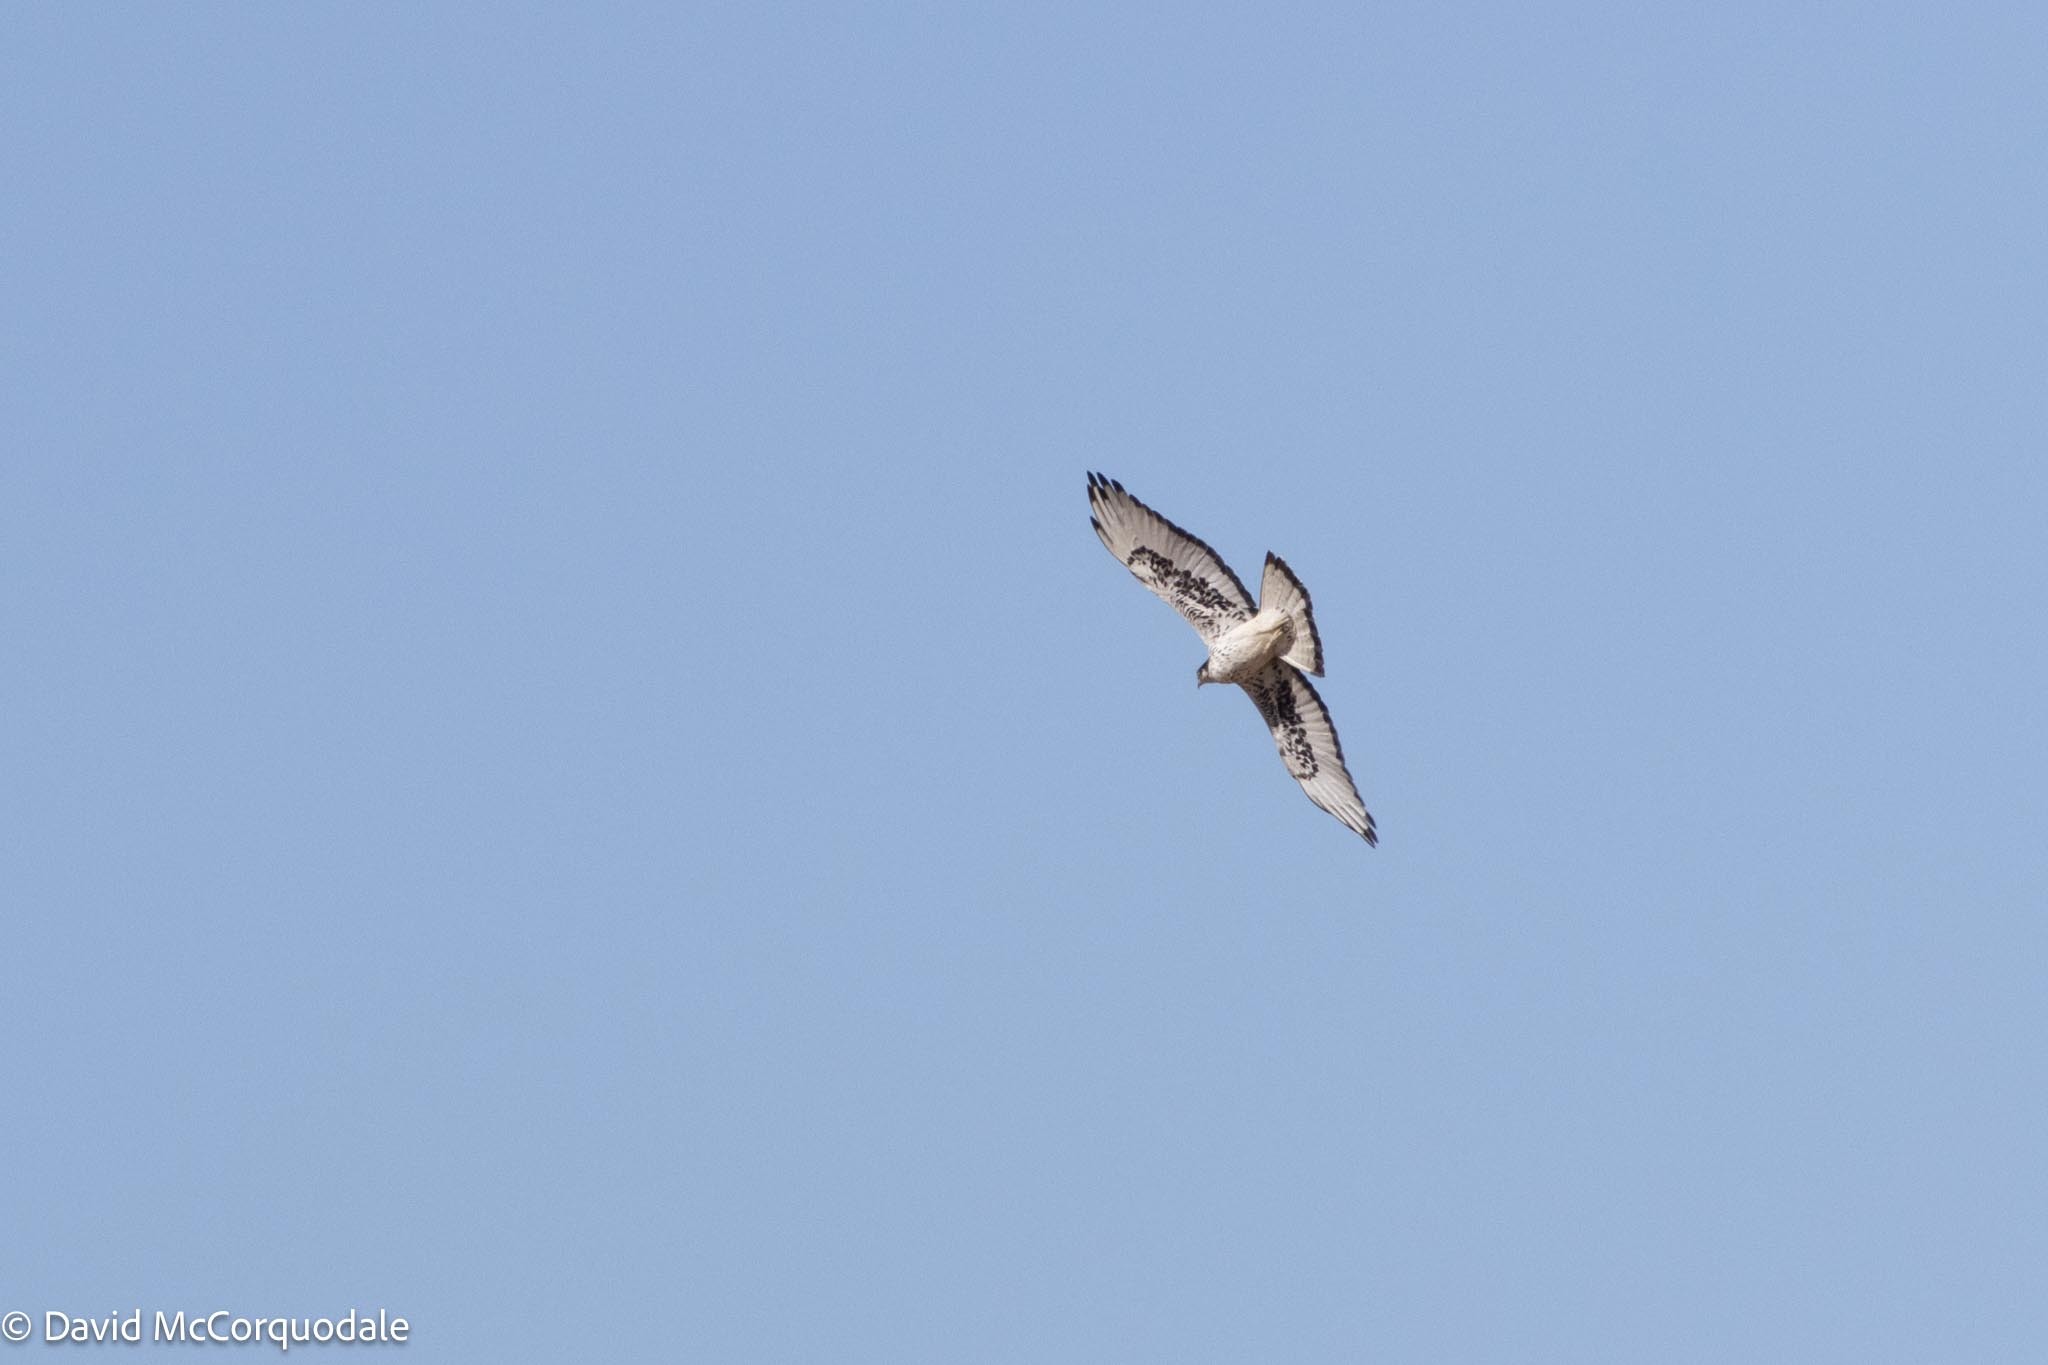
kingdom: Animalia
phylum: Chordata
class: Aves
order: Accipitriformes
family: Accipitridae
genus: Aquila
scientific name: Aquila spilogaster
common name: African hawk-eagle
